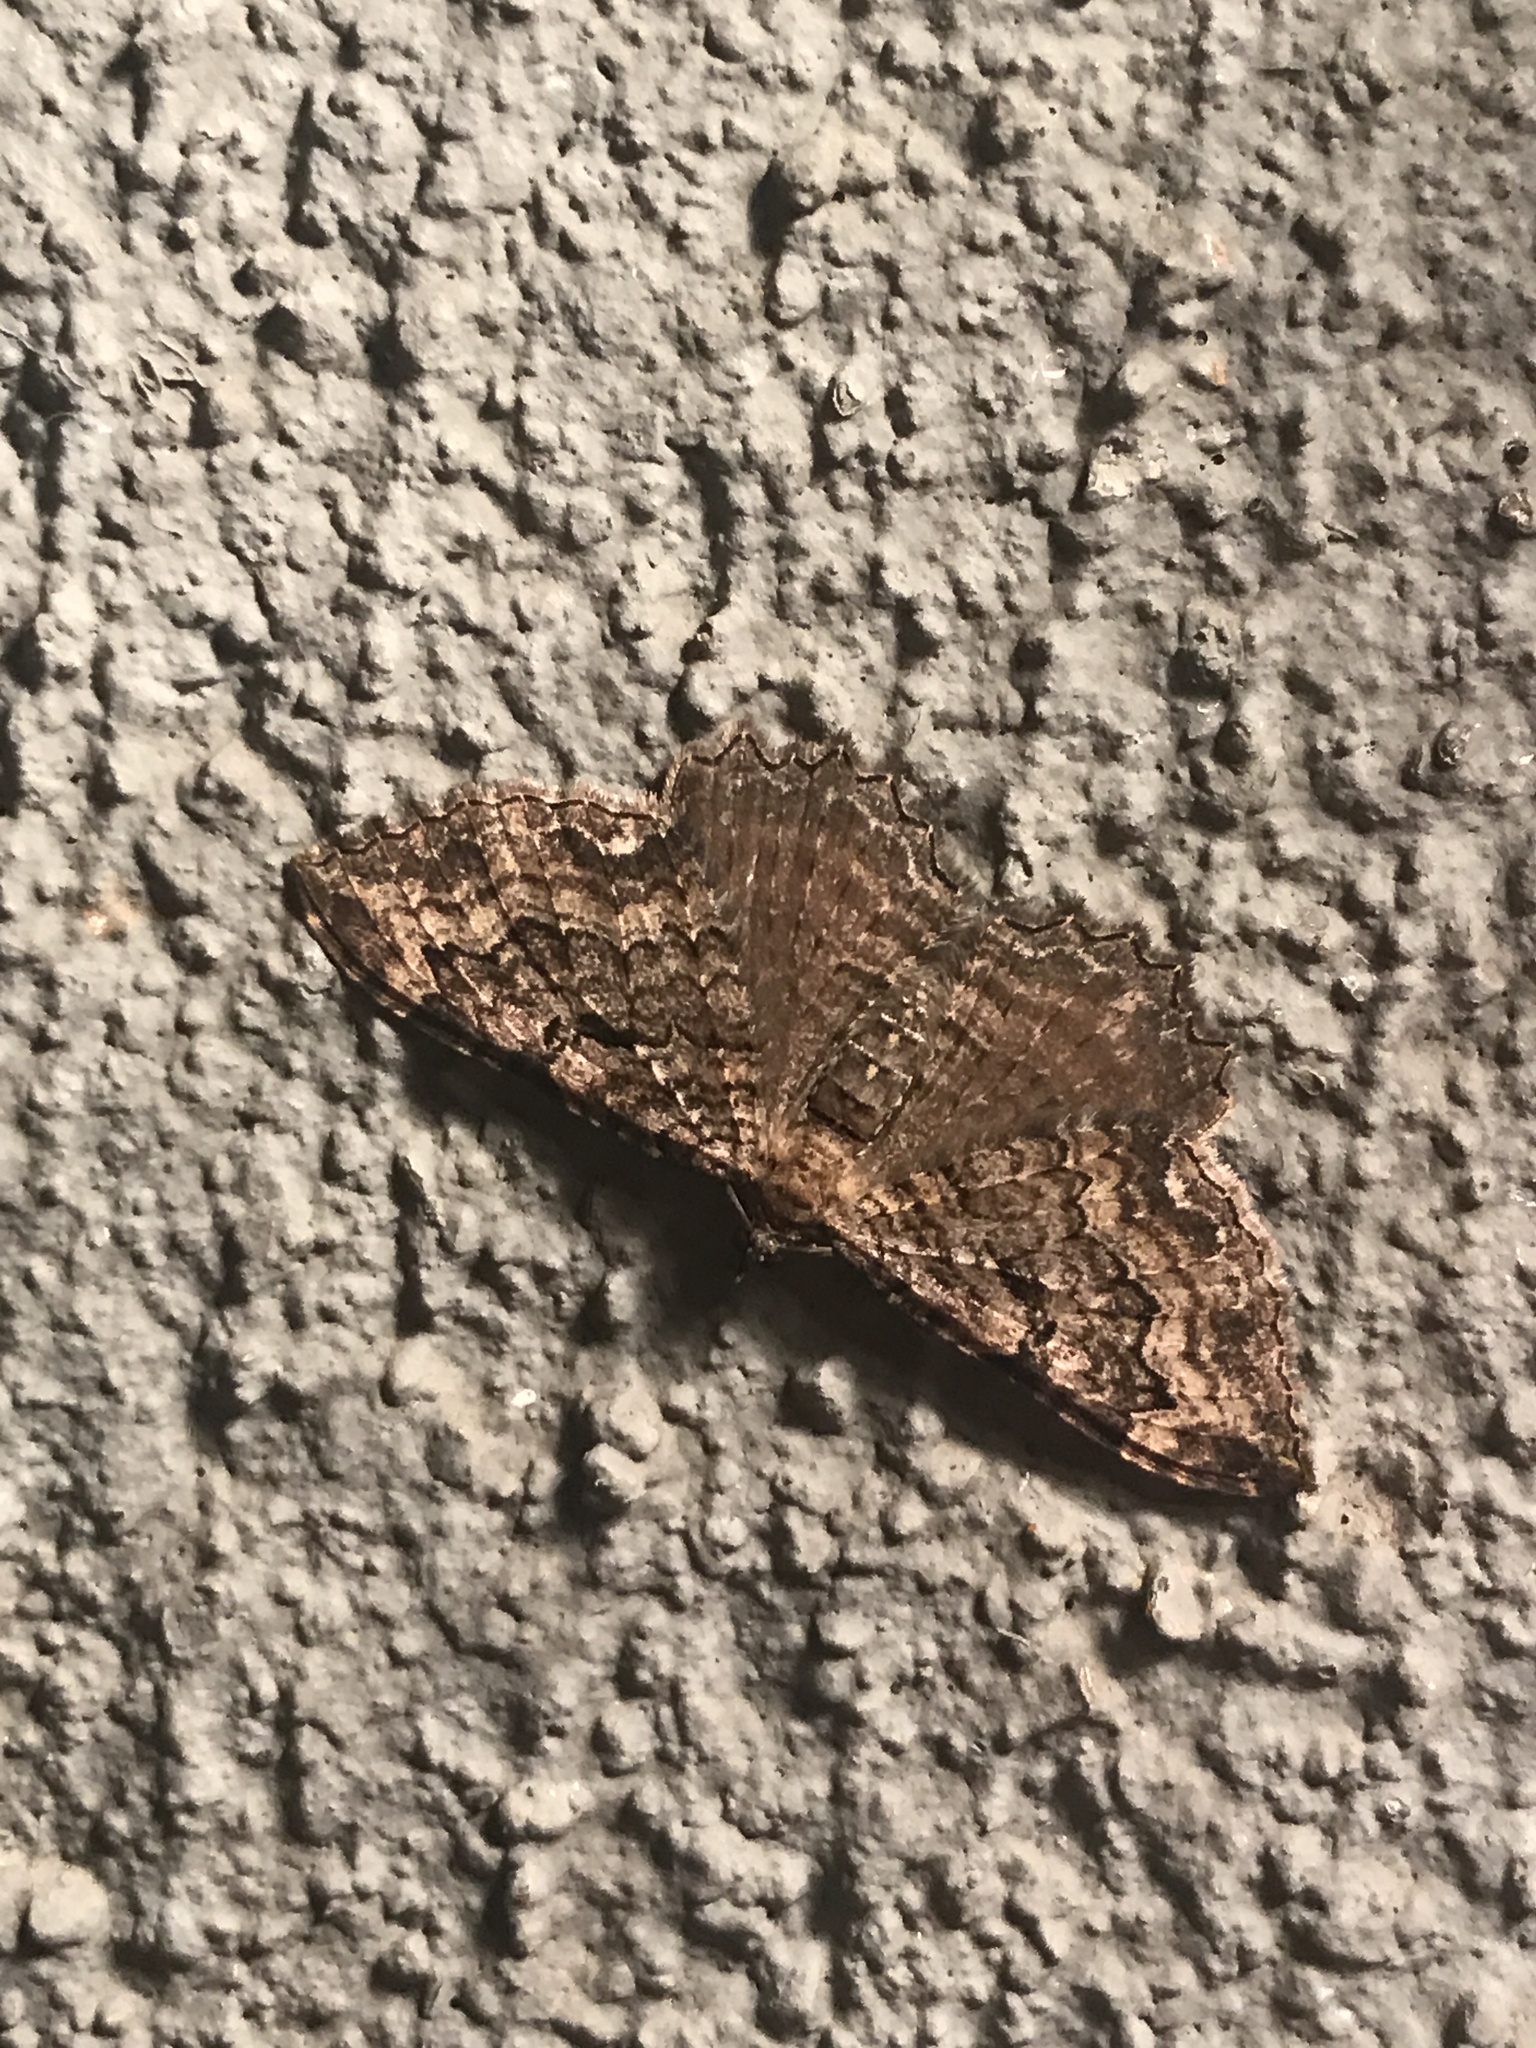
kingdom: Animalia
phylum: Arthropoda
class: Insecta
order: Lepidoptera
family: Geometridae
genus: Rheumaptera
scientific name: Rheumaptera
